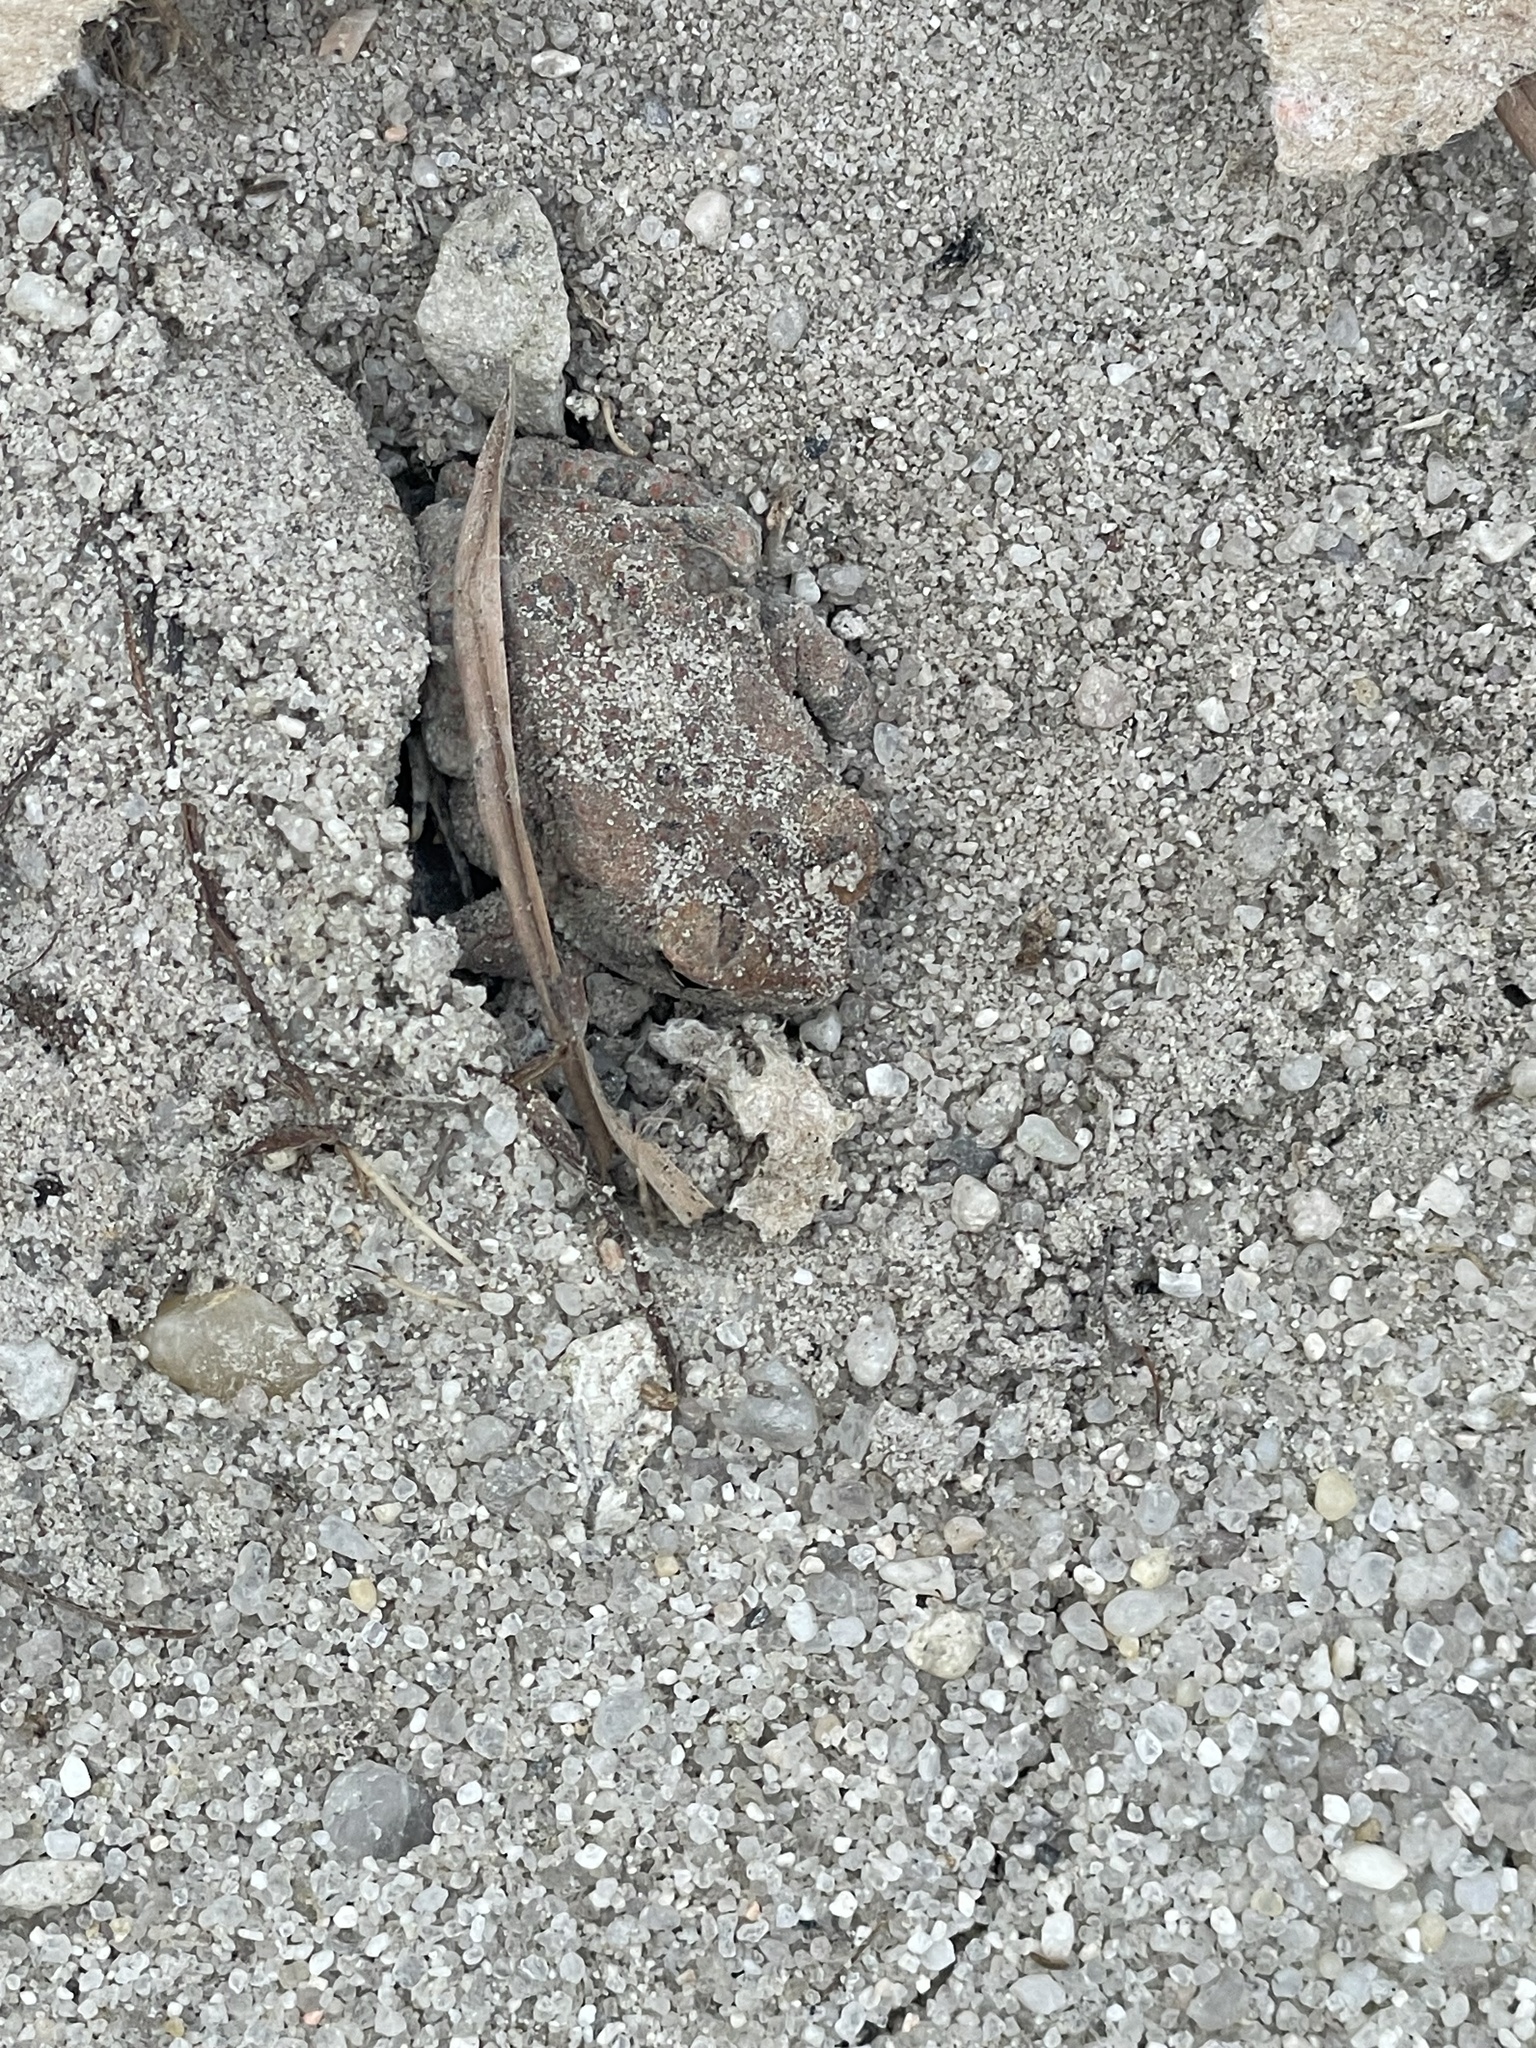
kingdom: Animalia
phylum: Chordata
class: Amphibia
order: Anura
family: Bufonidae
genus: Anaxyrus
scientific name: Anaxyrus fowleri
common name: Fowler's toad
